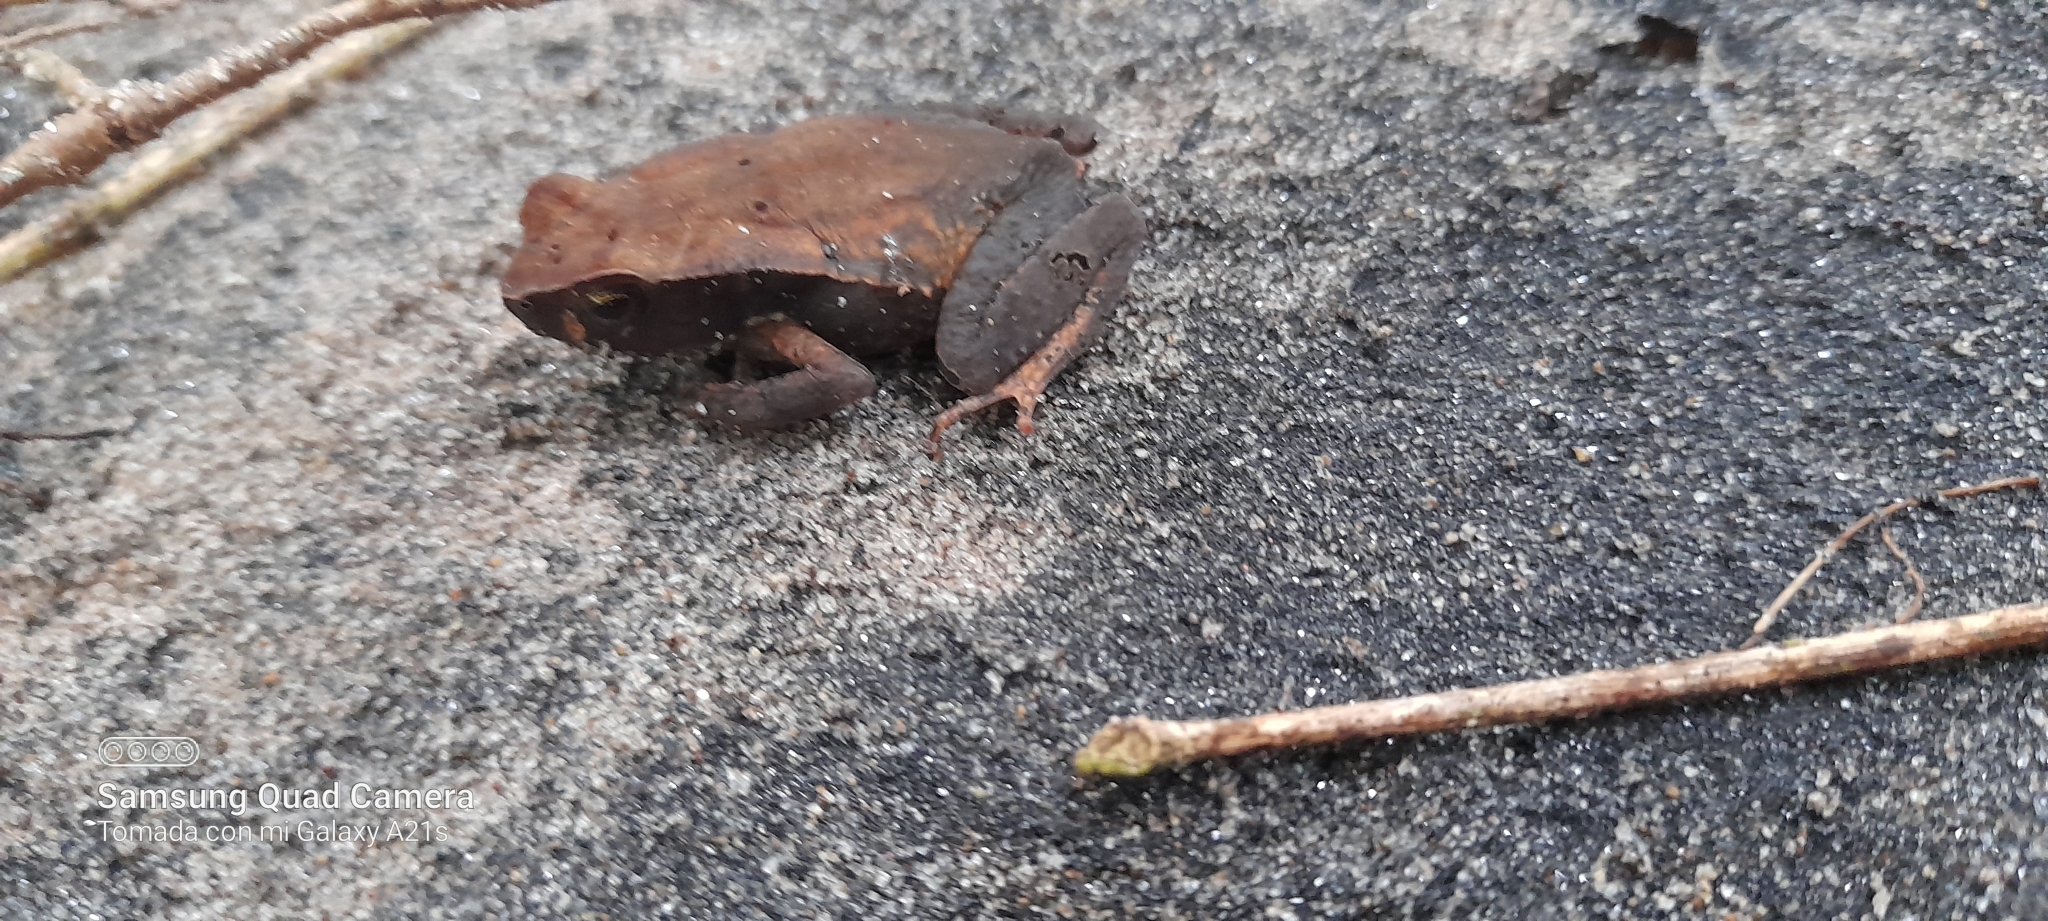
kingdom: Animalia
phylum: Chordata
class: Amphibia
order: Anura
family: Bufonidae
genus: Rhaebo
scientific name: Rhaebo haematiticus
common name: Truando toad
